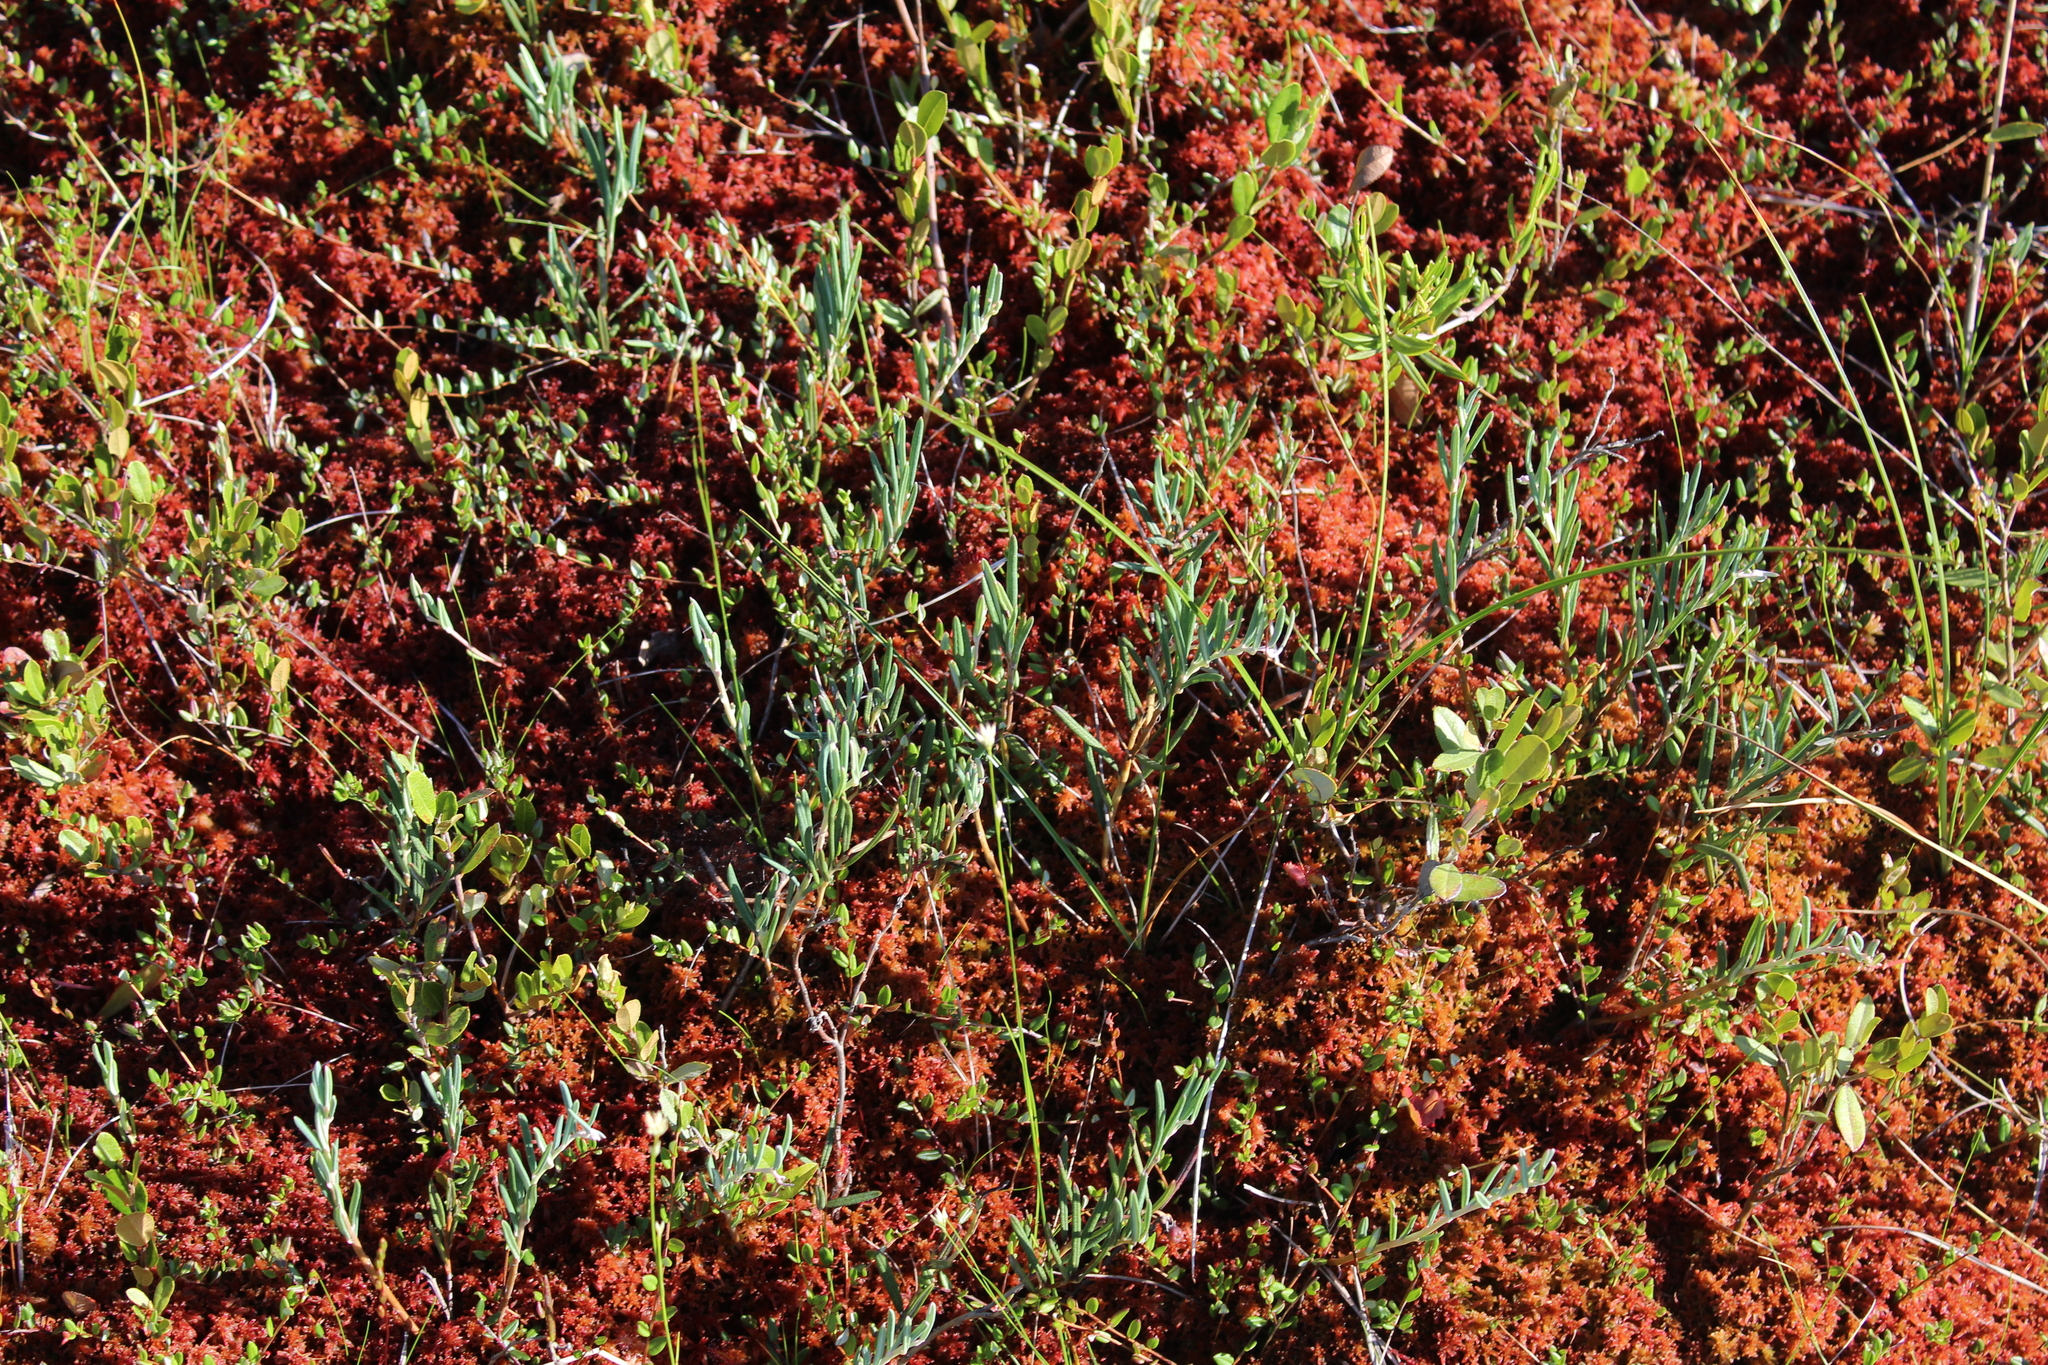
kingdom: Plantae
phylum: Tracheophyta
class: Magnoliopsida
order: Ericales
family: Ericaceae
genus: Andromeda
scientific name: Andromeda polifolia
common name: Bog-rosemary
